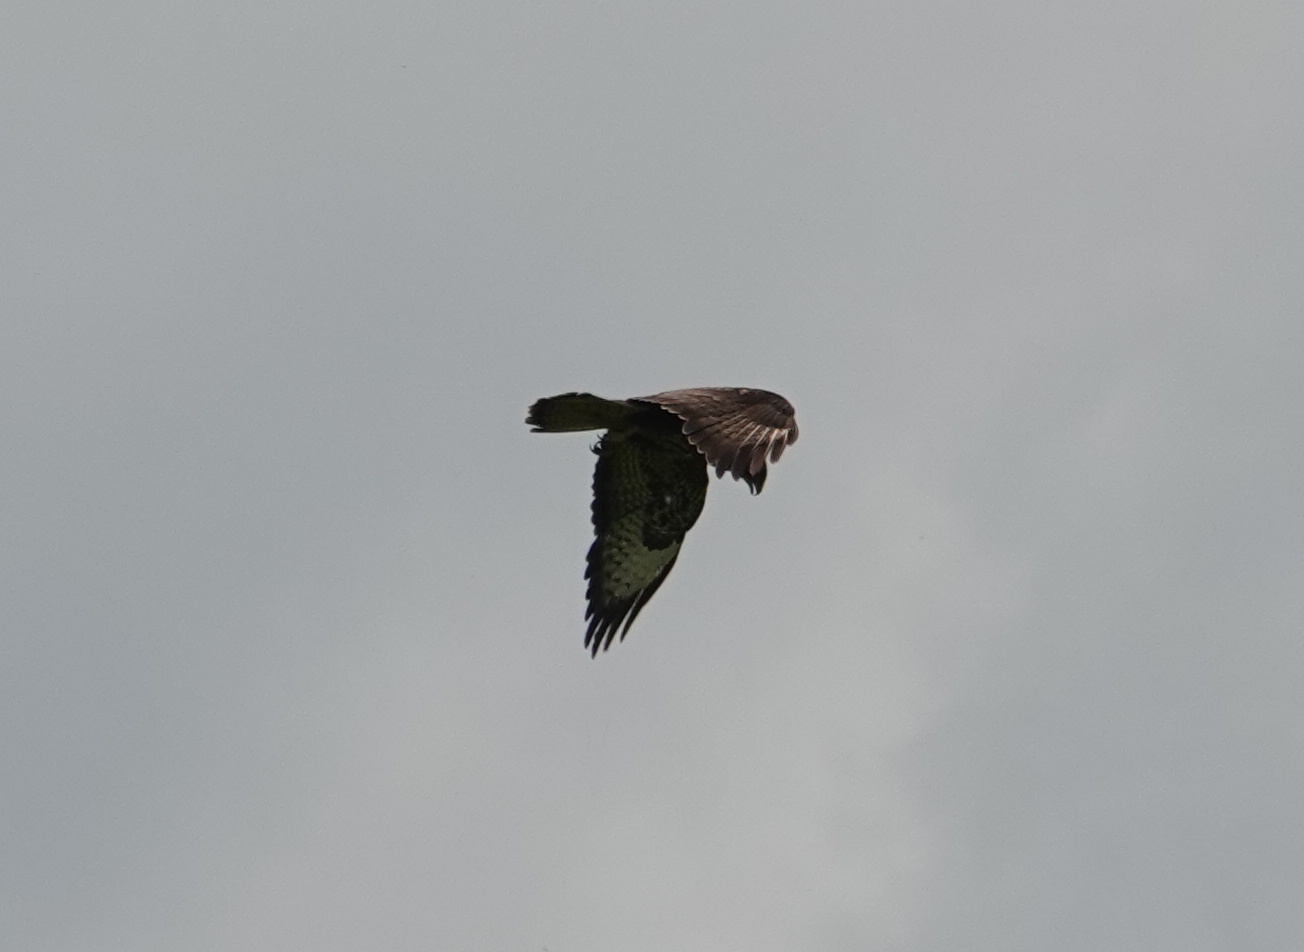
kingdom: Animalia
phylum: Chordata
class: Aves
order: Accipitriformes
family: Accipitridae
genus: Buteo
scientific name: Buteo buteo
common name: Common buzzard
